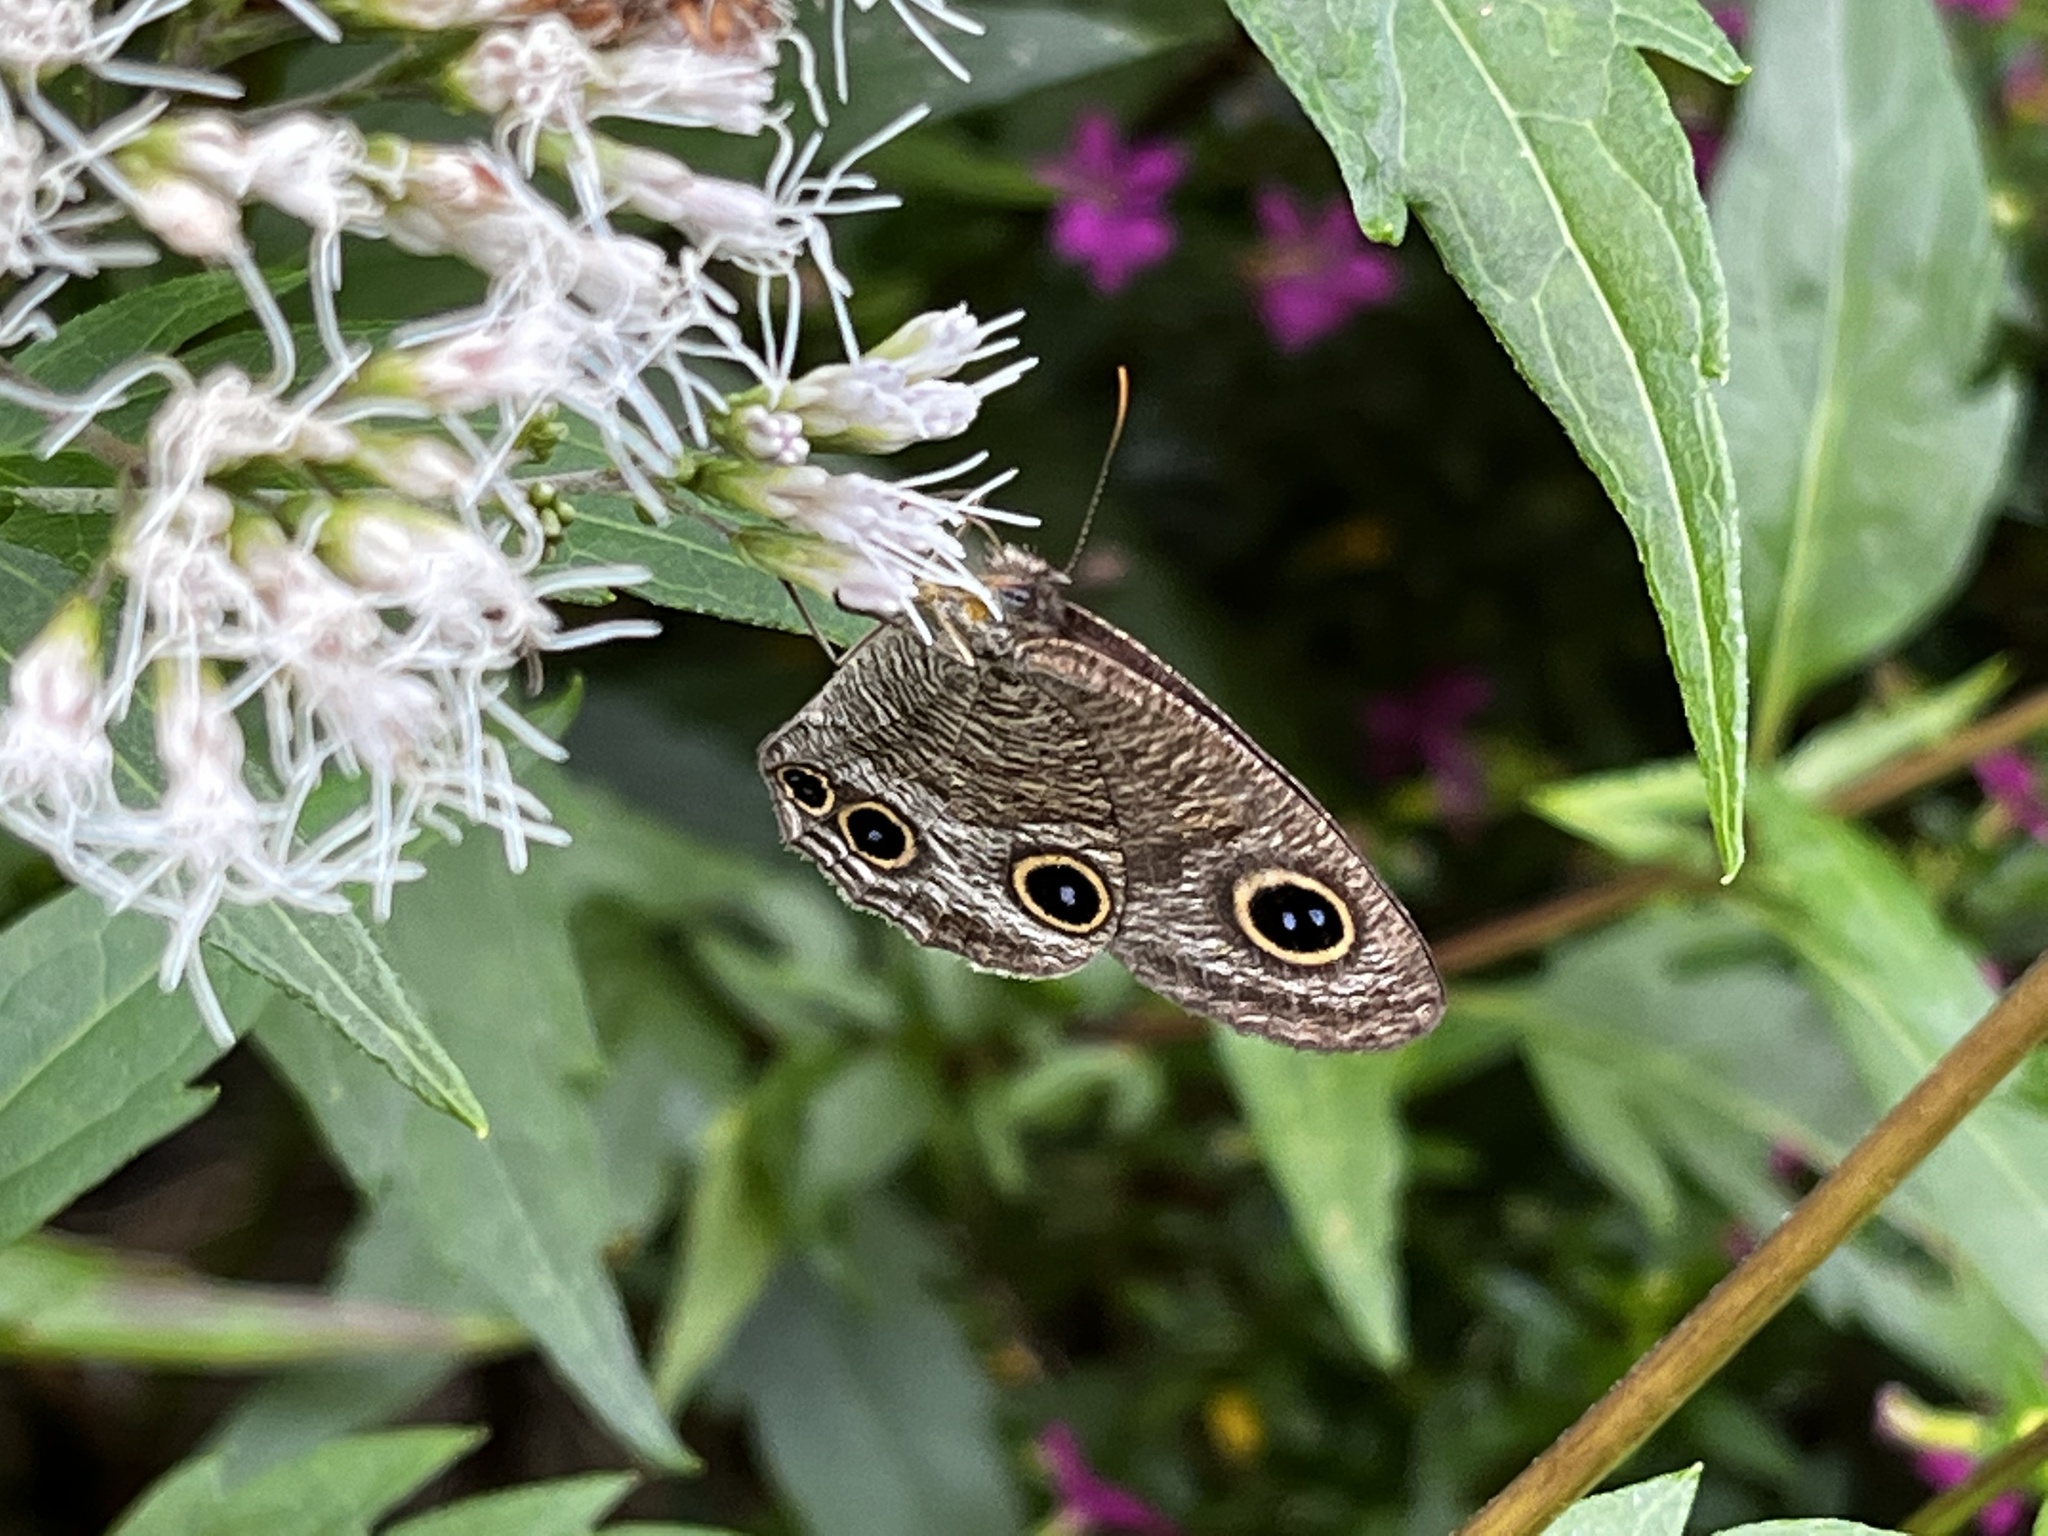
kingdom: Animalia
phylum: Arthropoda
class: Insecta
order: Lepidoptera
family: Nymphalidae
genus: Ypthima
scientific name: Ypthima multistriata
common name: Striated ringlet
